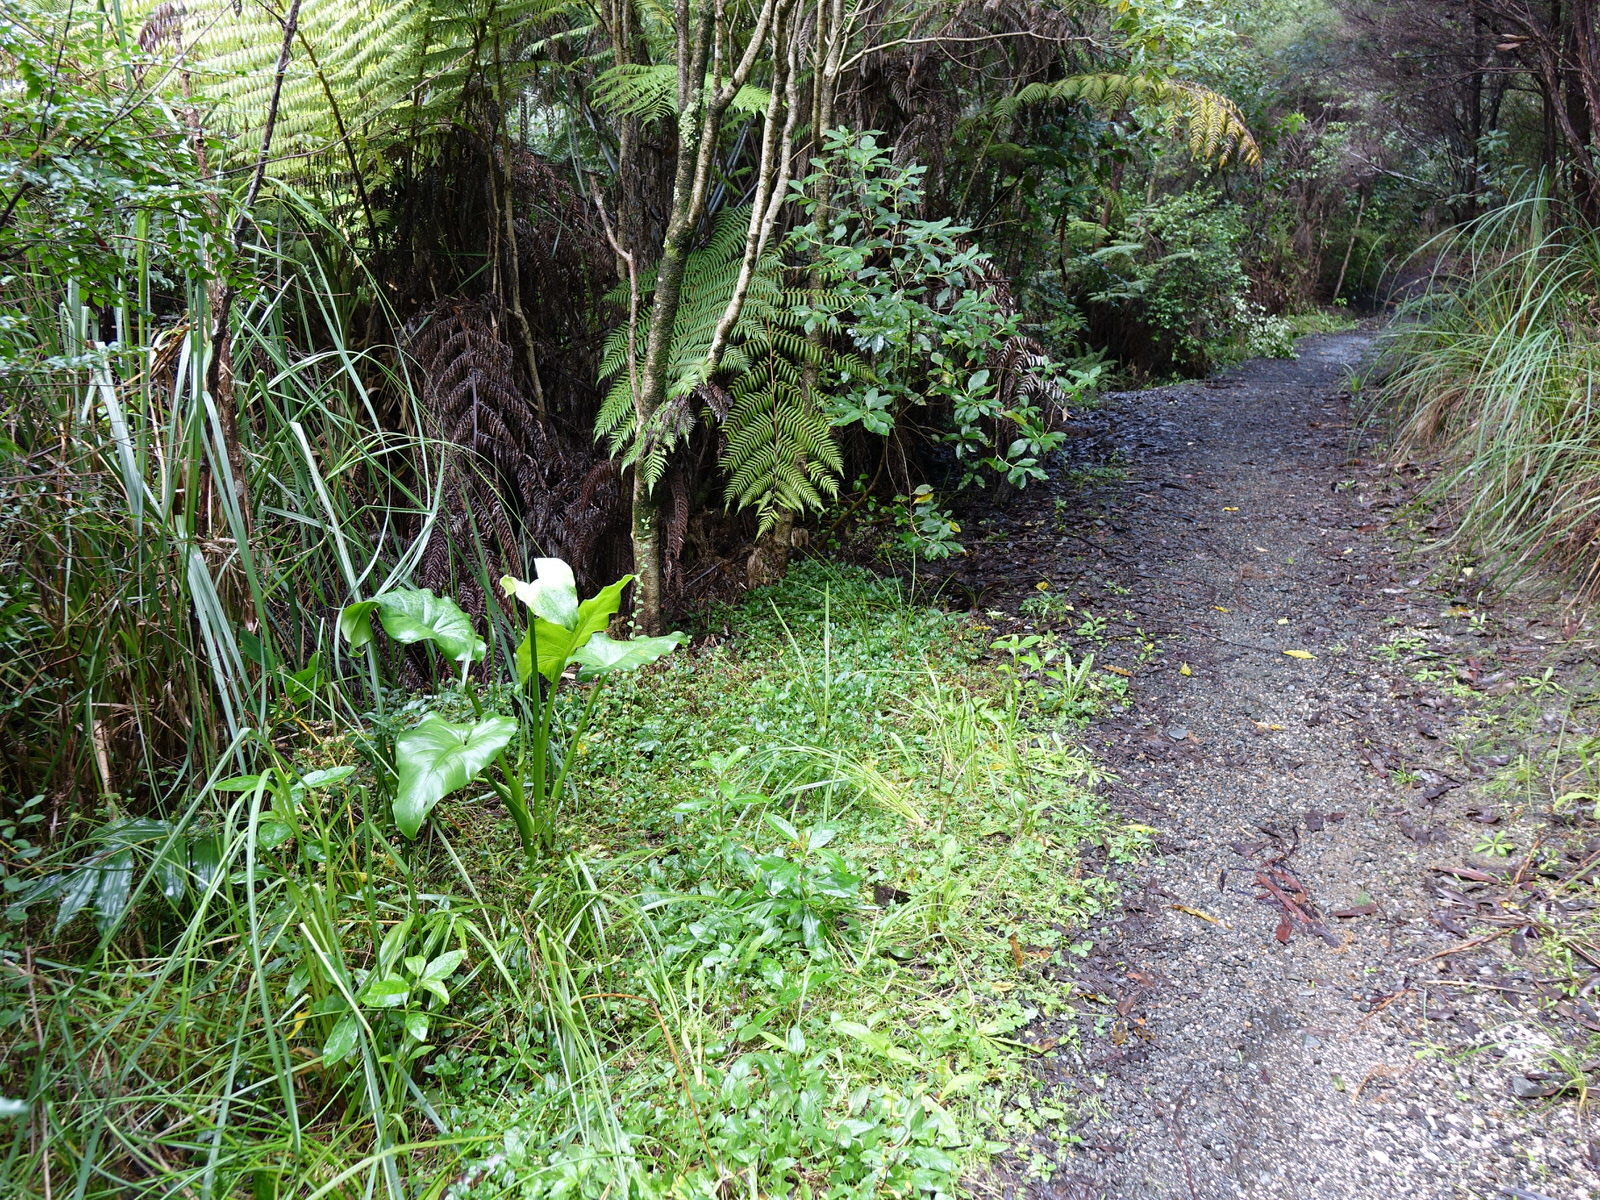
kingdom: Plantae
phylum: Tracheophyta
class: Liliopsida
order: Alismatales
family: Araceae
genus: Zantedeschia
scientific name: Zantedeschia aethiopica
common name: Altar-lily
